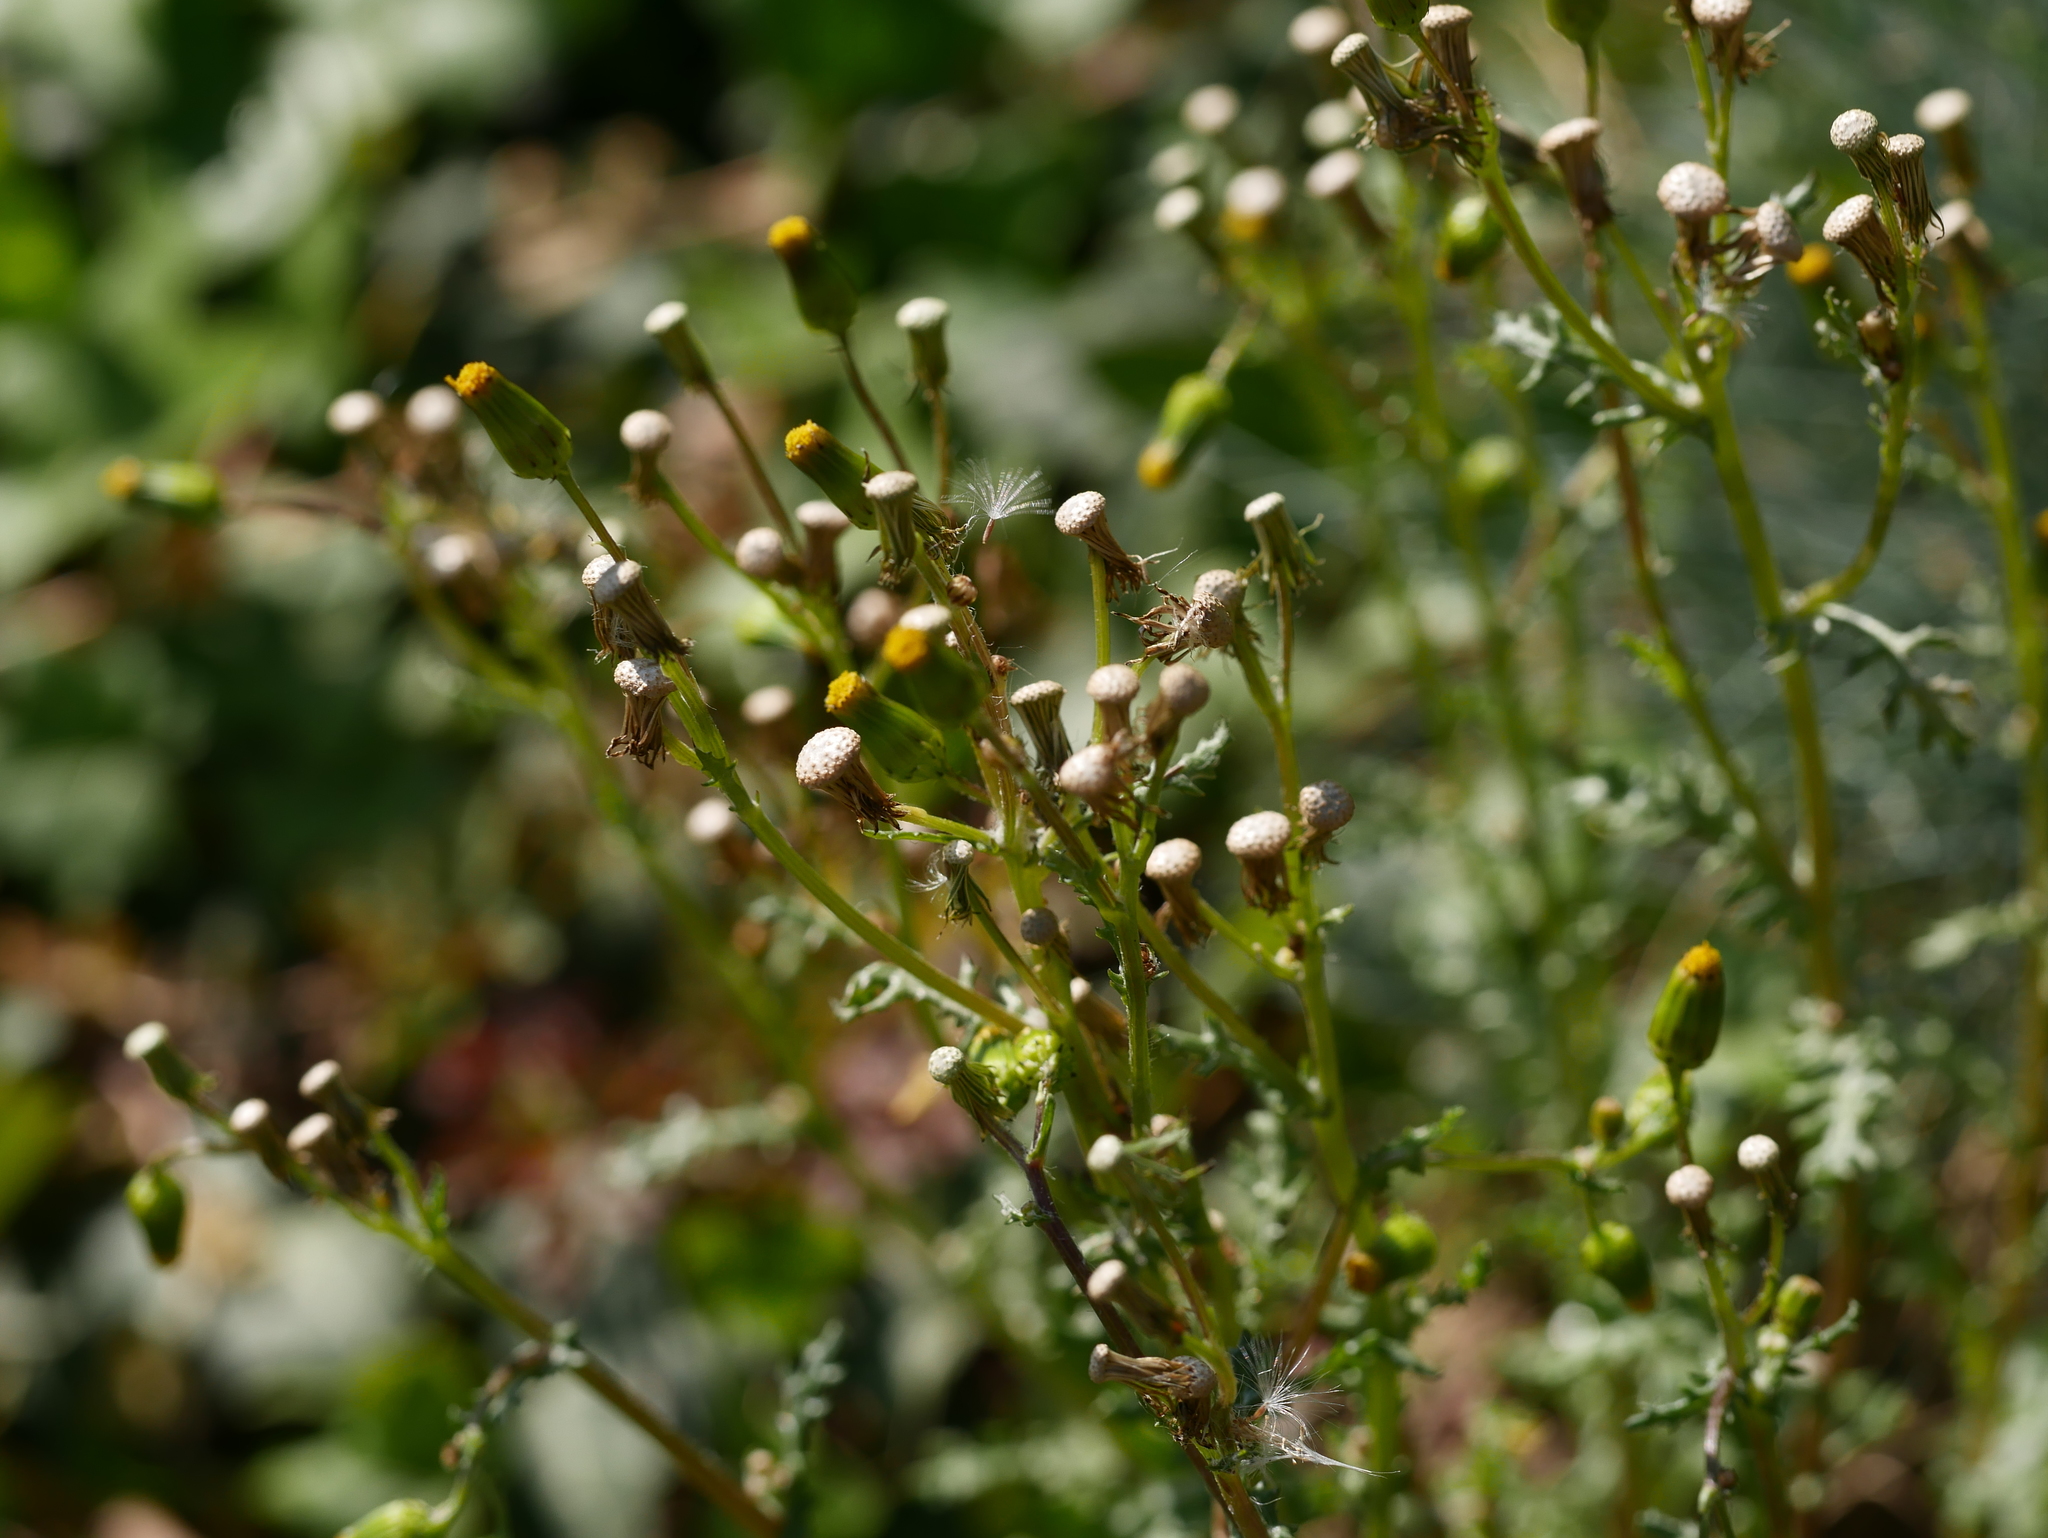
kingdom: Plantae
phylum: Tracheophyta
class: Magnoliopsida
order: Asterales
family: Asteraceae
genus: Senecio
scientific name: Senecio vulgaris
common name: Old-man-in-the-spring
